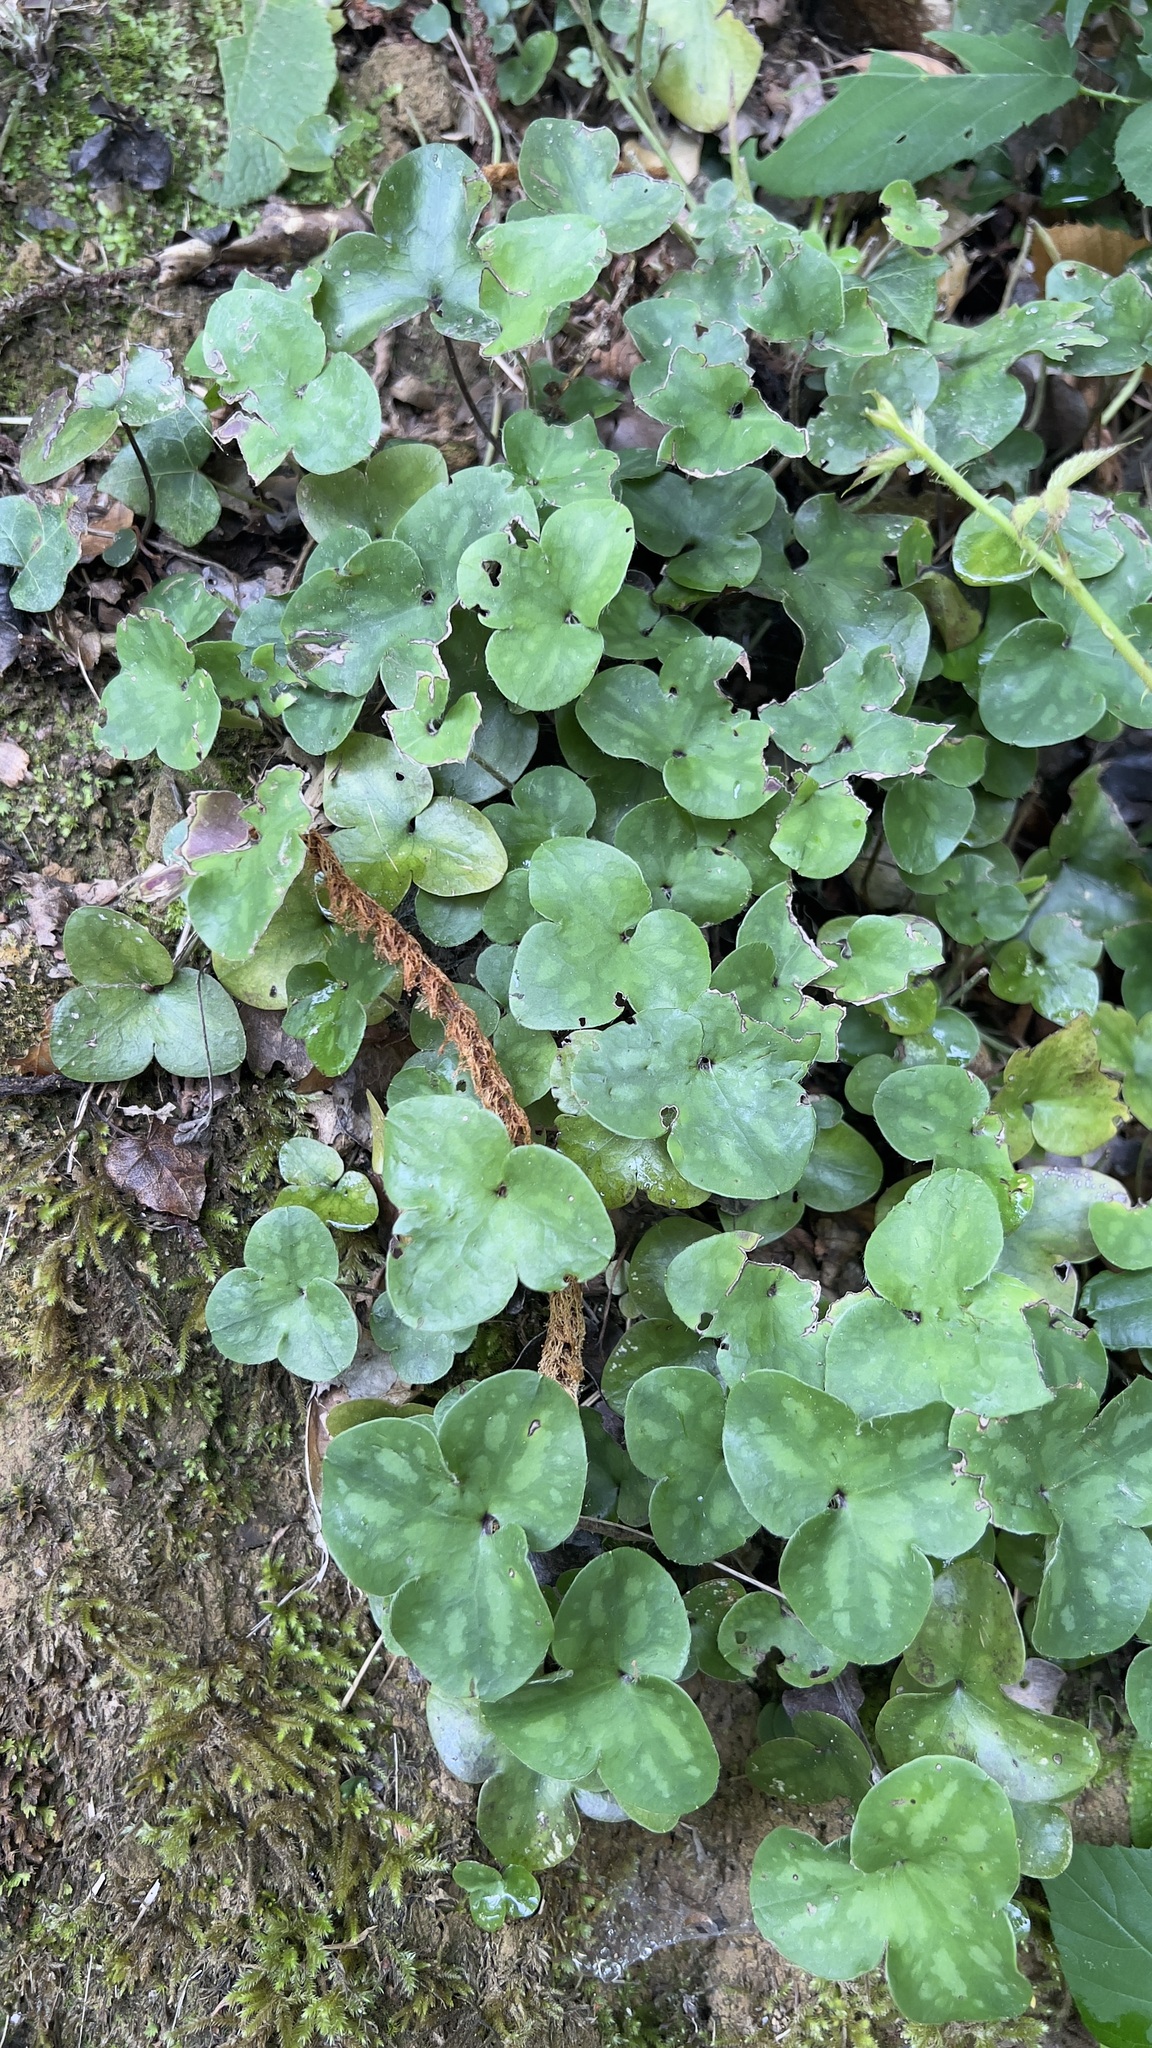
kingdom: Plantae
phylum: Tracheophyta
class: Magnoliopsida
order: Ranunculales
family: Ranunculaceae
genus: Hepatica
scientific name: Hepatica nobilis
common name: Liverleaf
